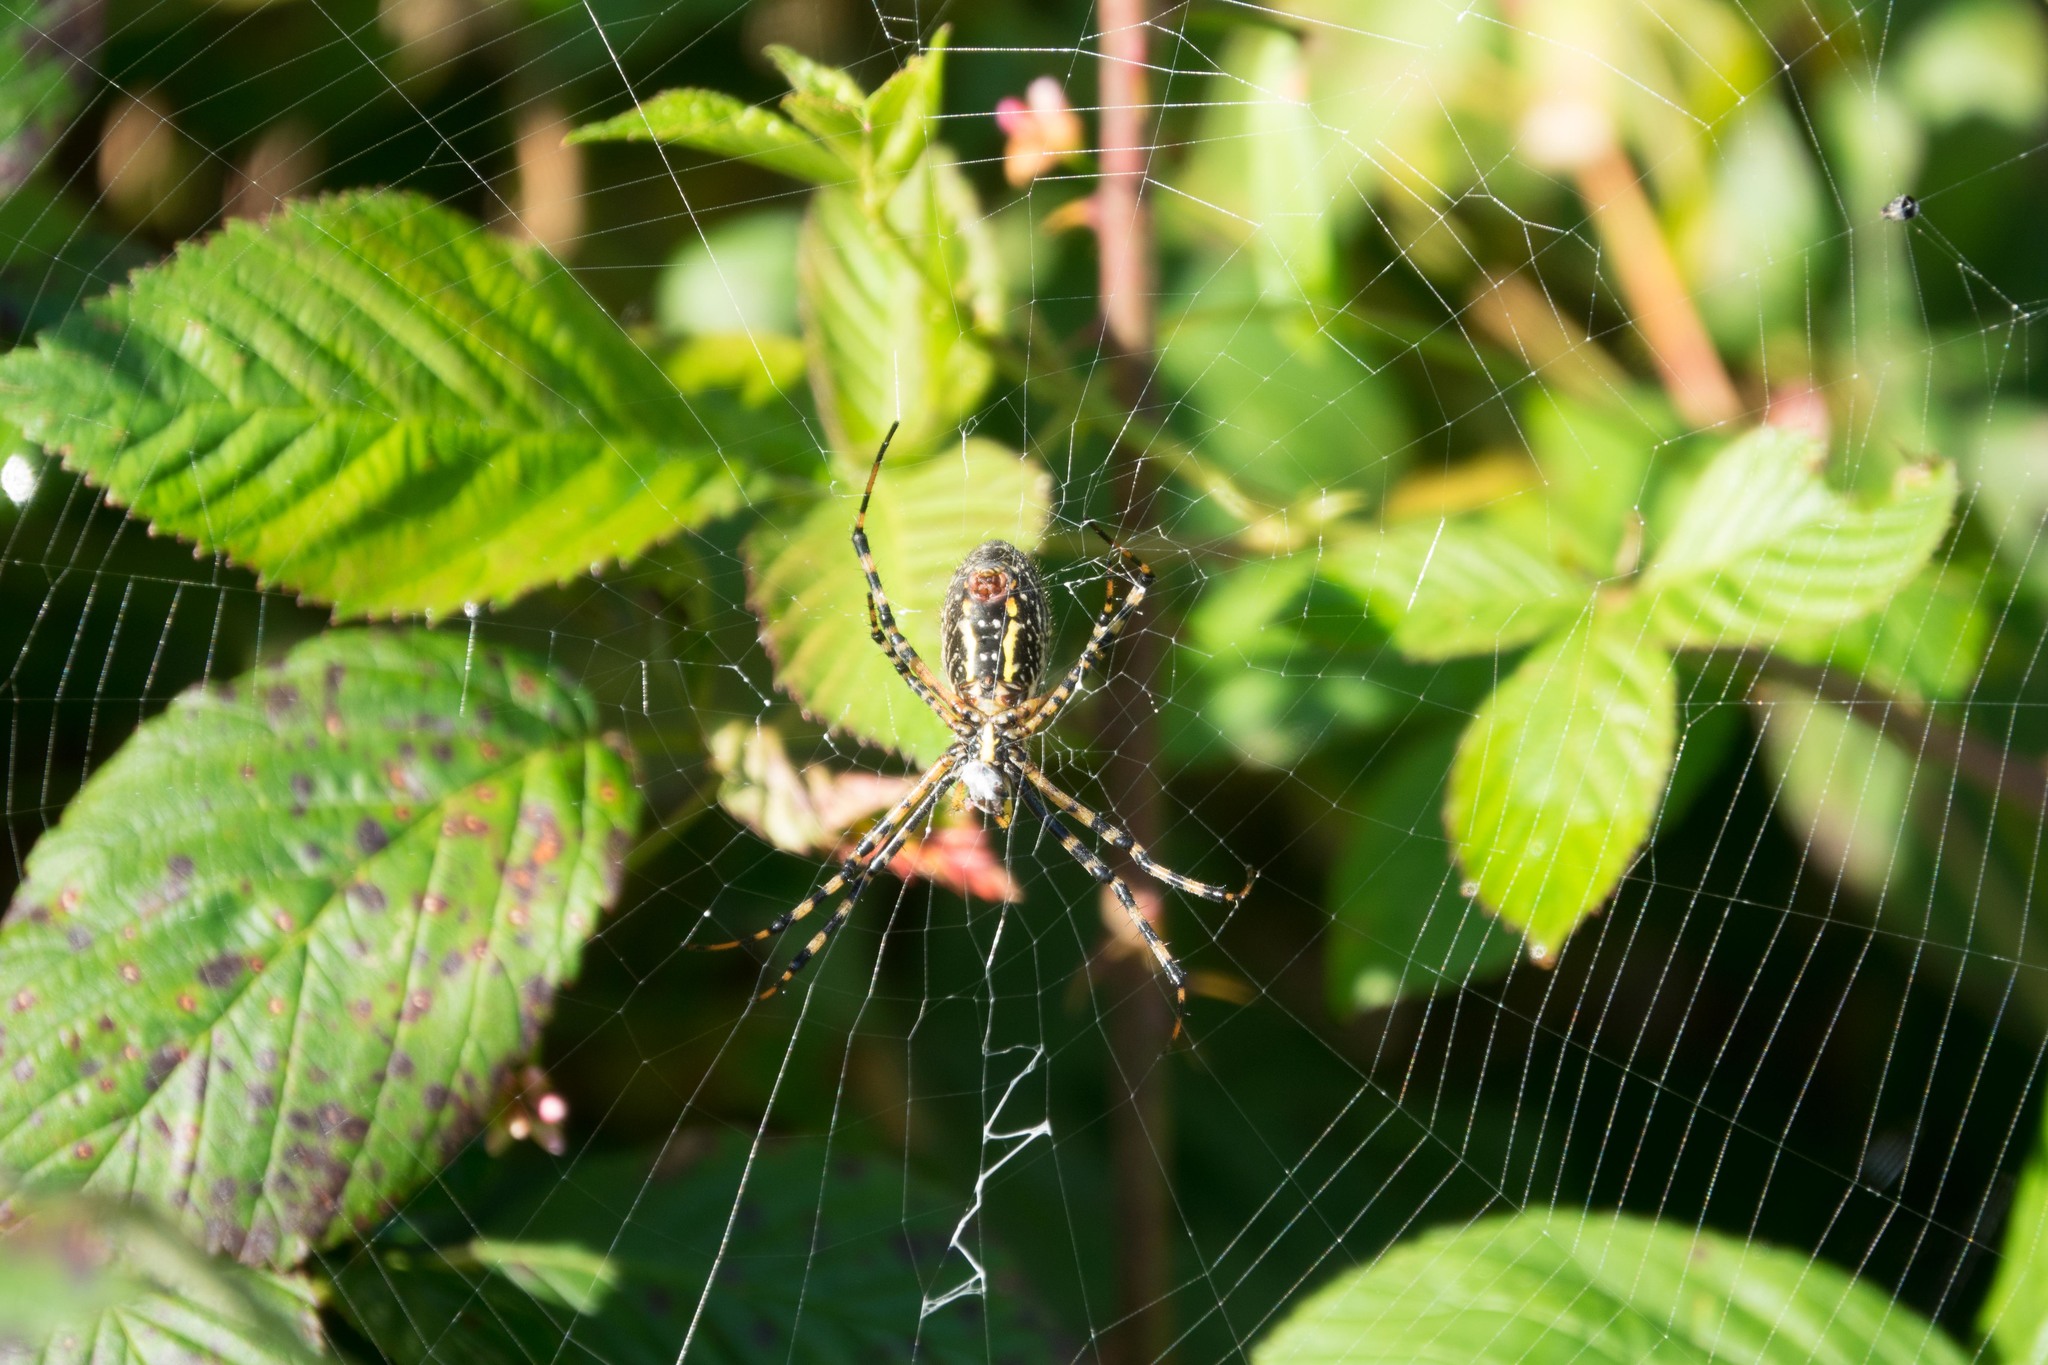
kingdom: Animalia
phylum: Arthropoda
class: Arachnida
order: Araneae
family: Araneidae
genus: Argiope
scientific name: Argiope trifasciata
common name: Banded garden spider
